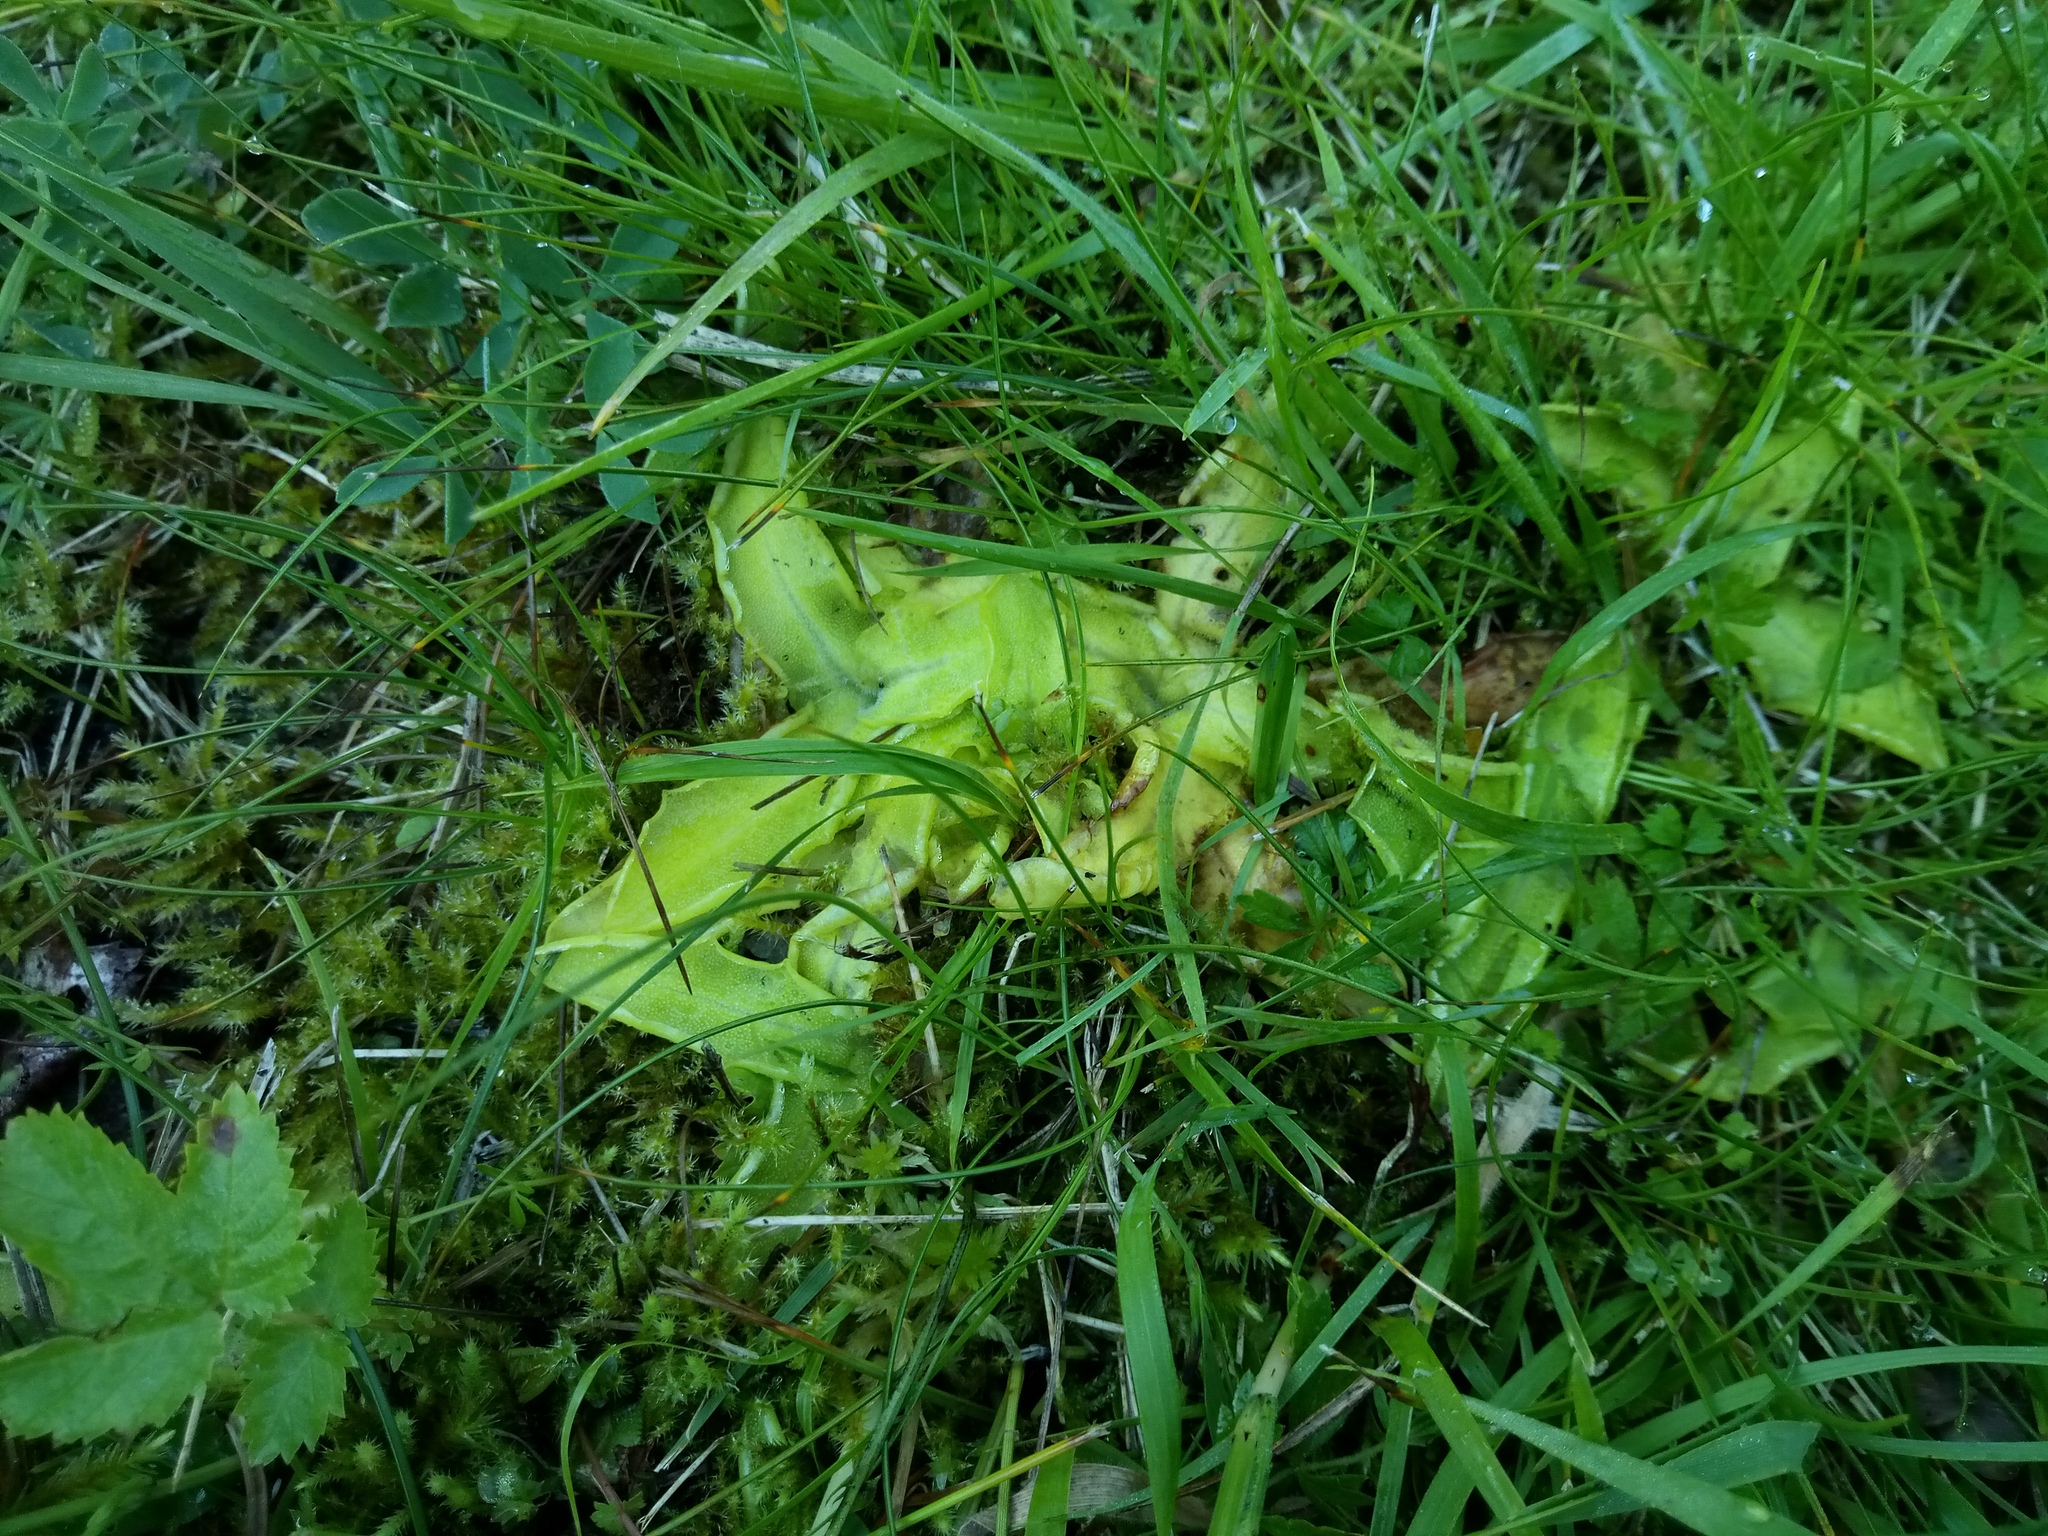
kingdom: Plantae
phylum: Tracheophyta
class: Magnoliopsida
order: Lamiales
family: Lentibulariaceae
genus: Pinguicula
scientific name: Pinguicula vulgaris
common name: Common butterwort
